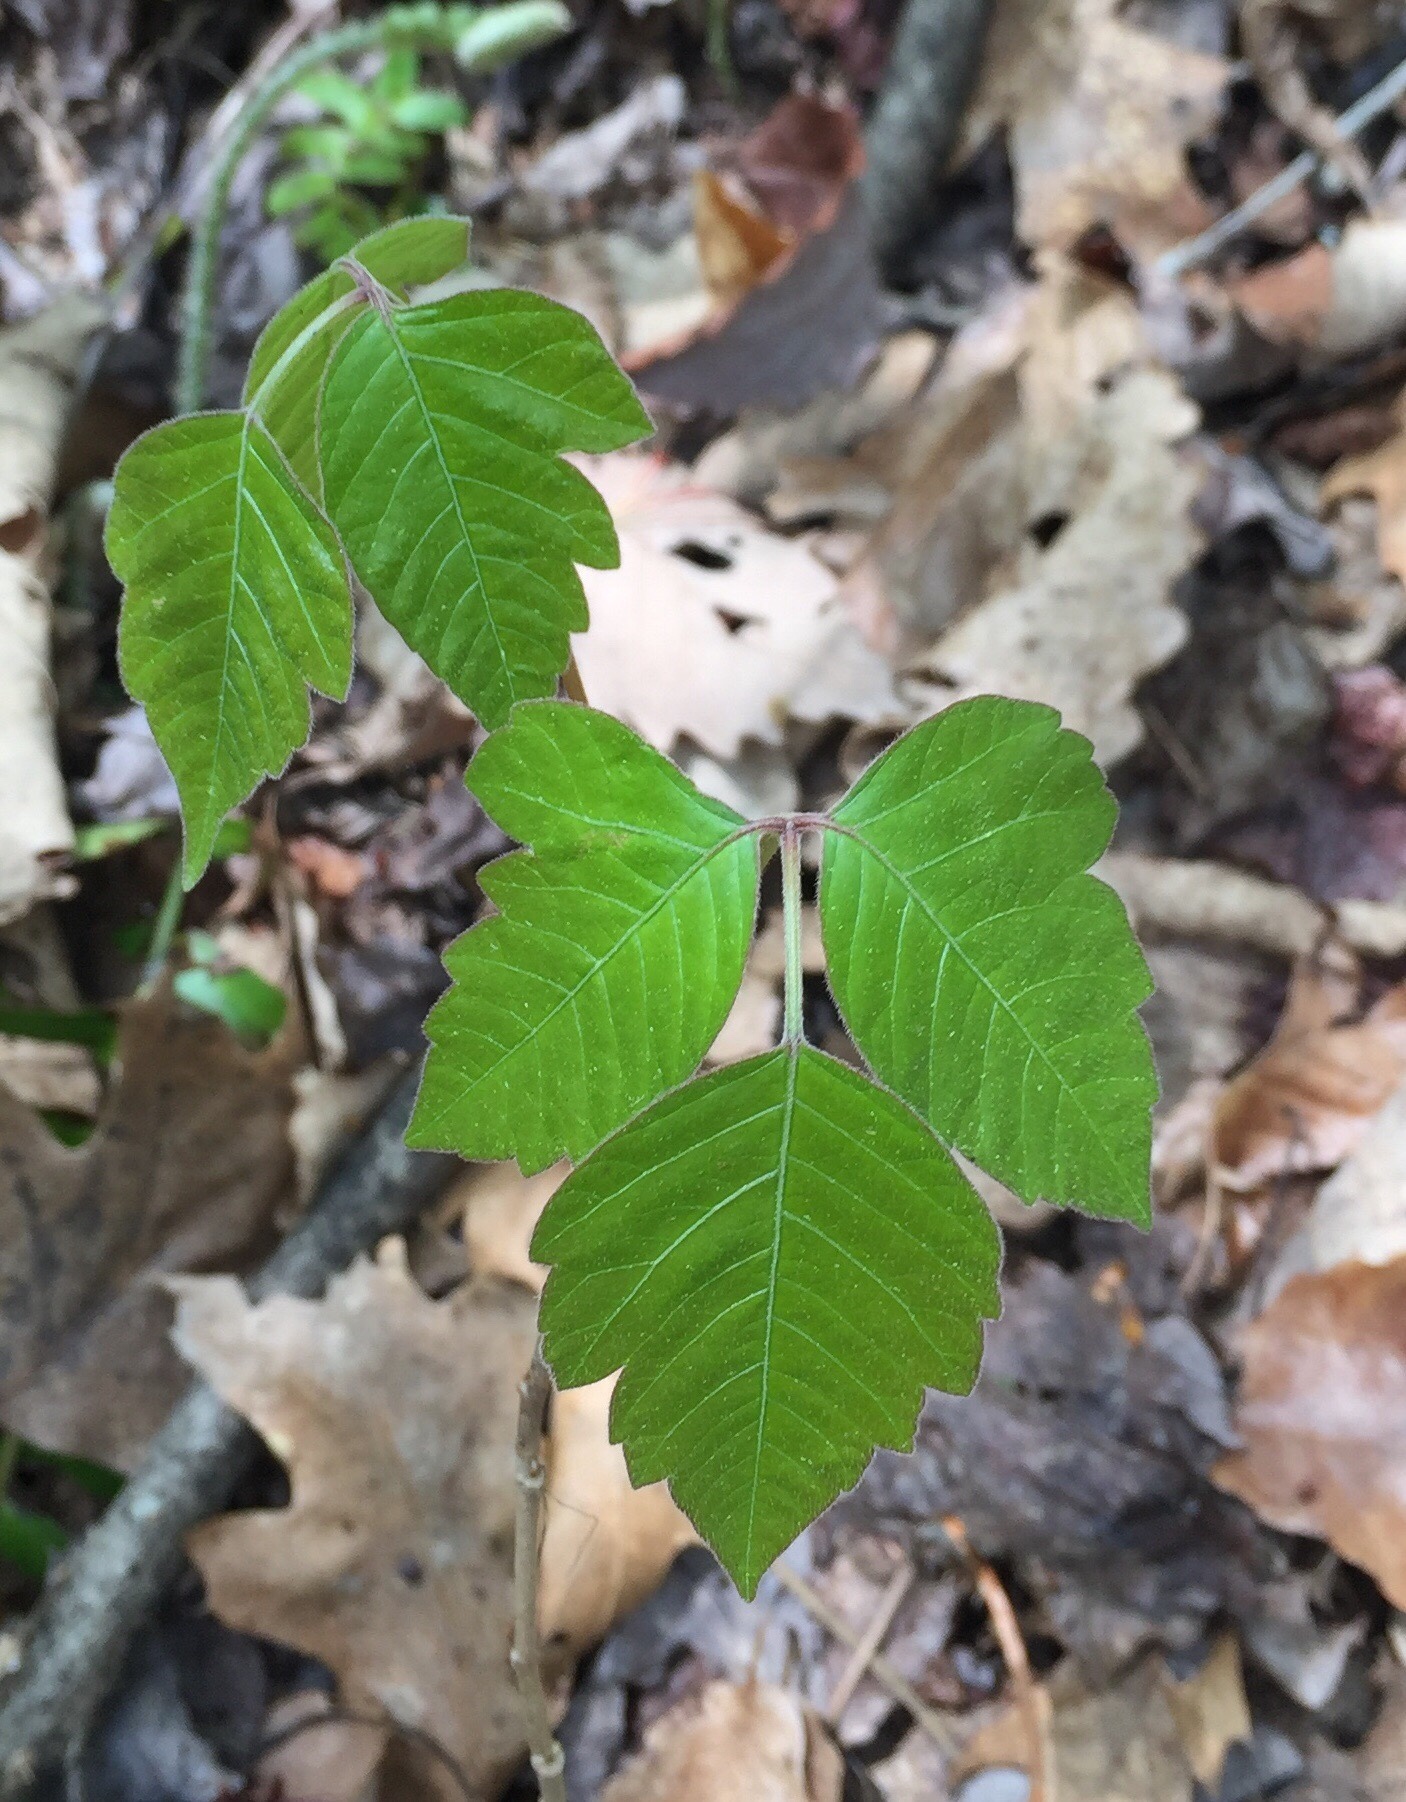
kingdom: Plantae
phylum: Tracheophyta
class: Magnoliopsida
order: Sapindales
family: Anacardiaceae
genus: Toxicodendron
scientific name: Toxicodendron radicans
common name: Poison ivy
